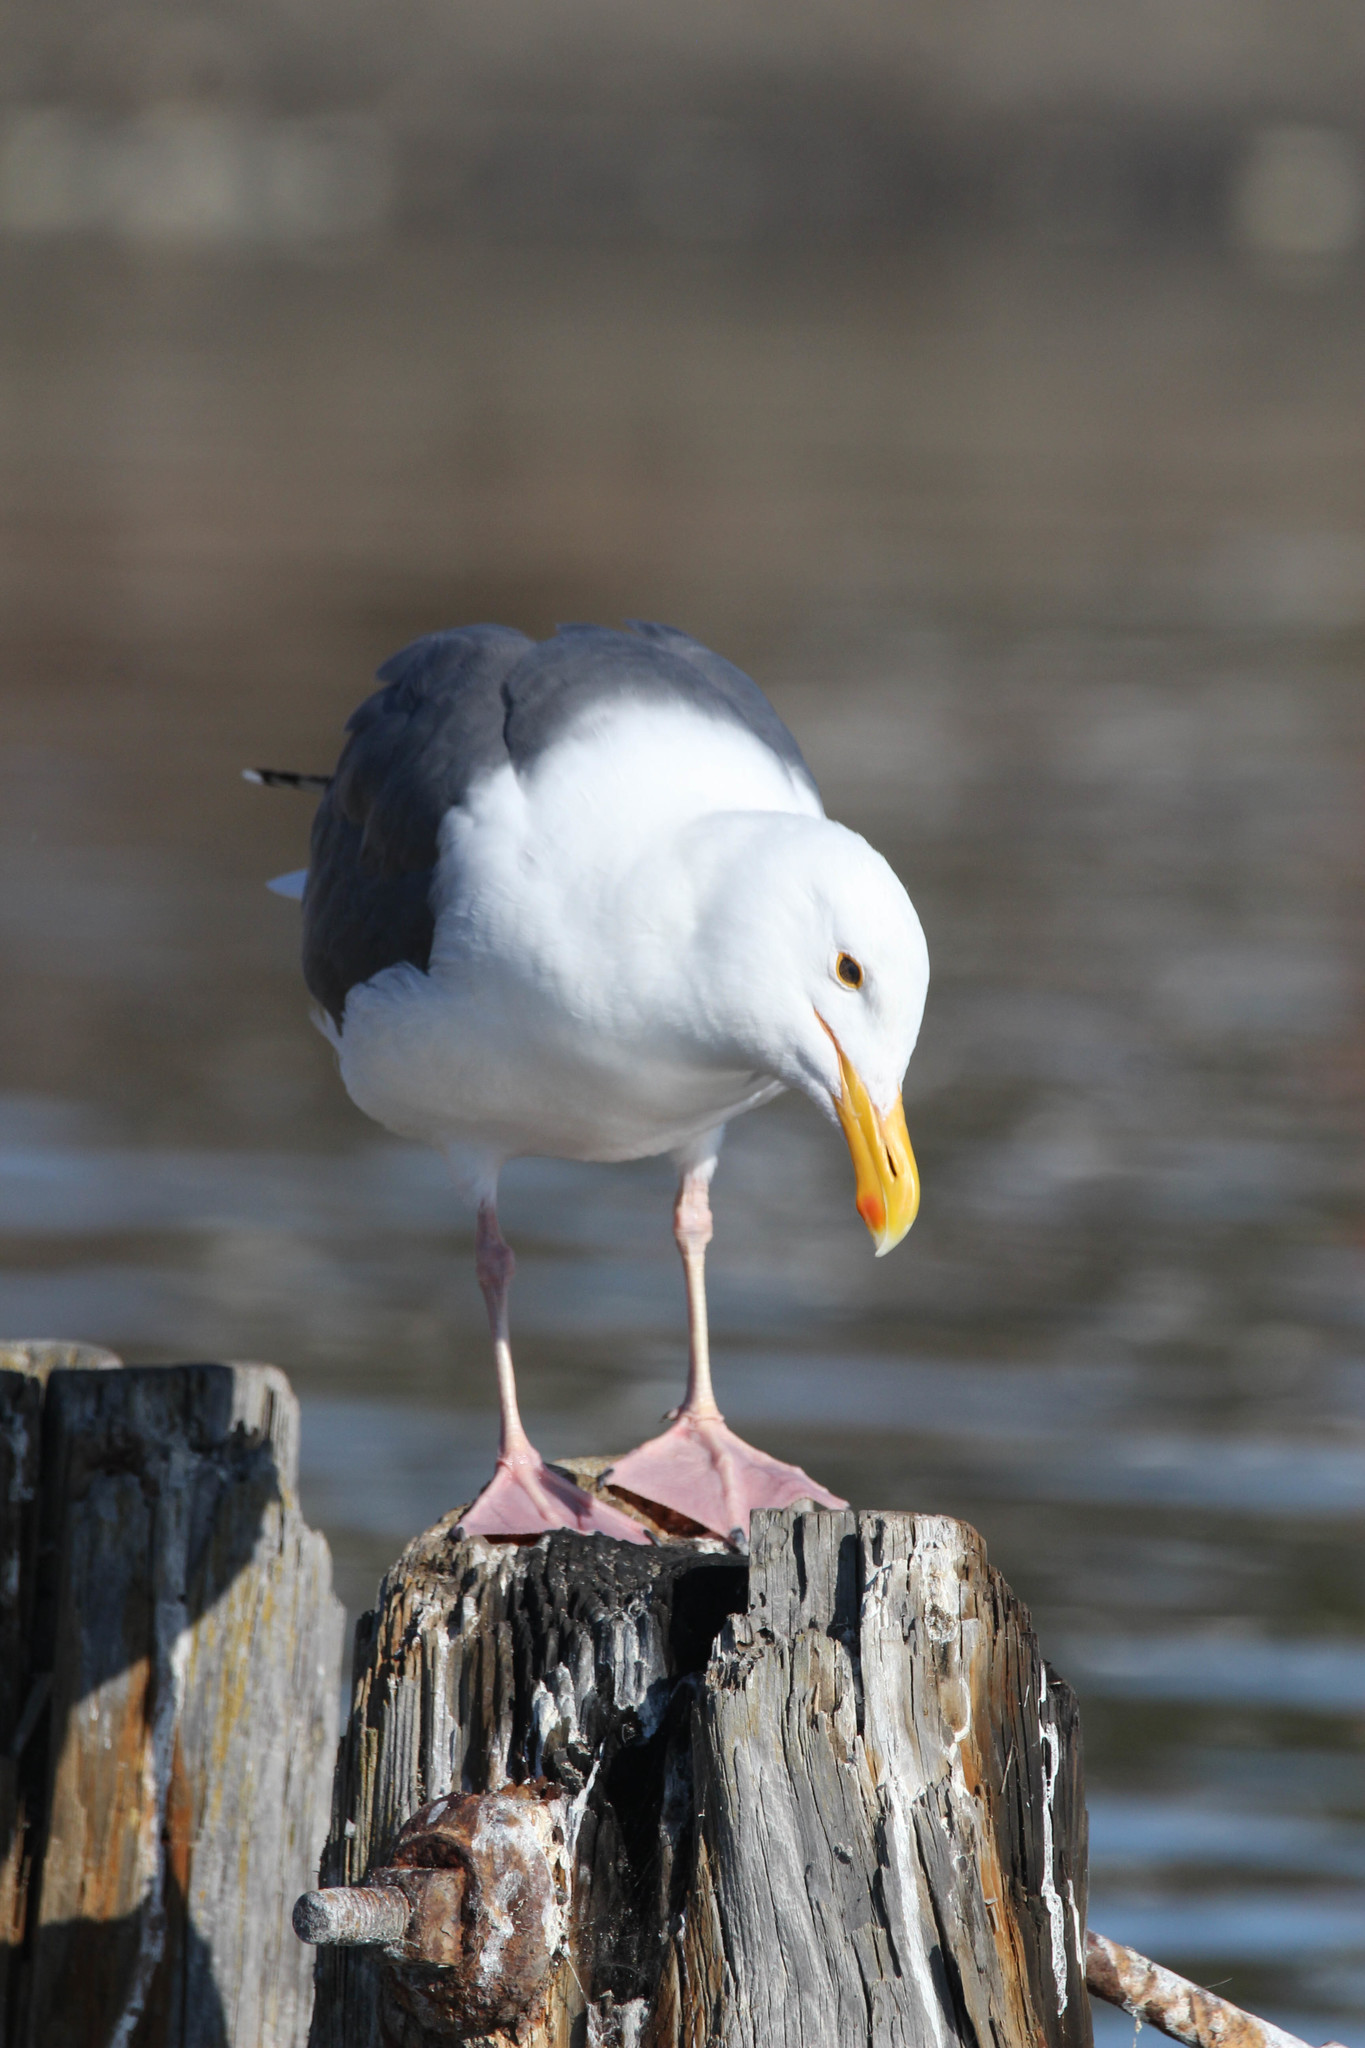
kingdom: Animalia
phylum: Chordata
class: Aves
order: Charadriiformes
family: Laridae
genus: Larus
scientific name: Larus occidentalis
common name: Western gull
